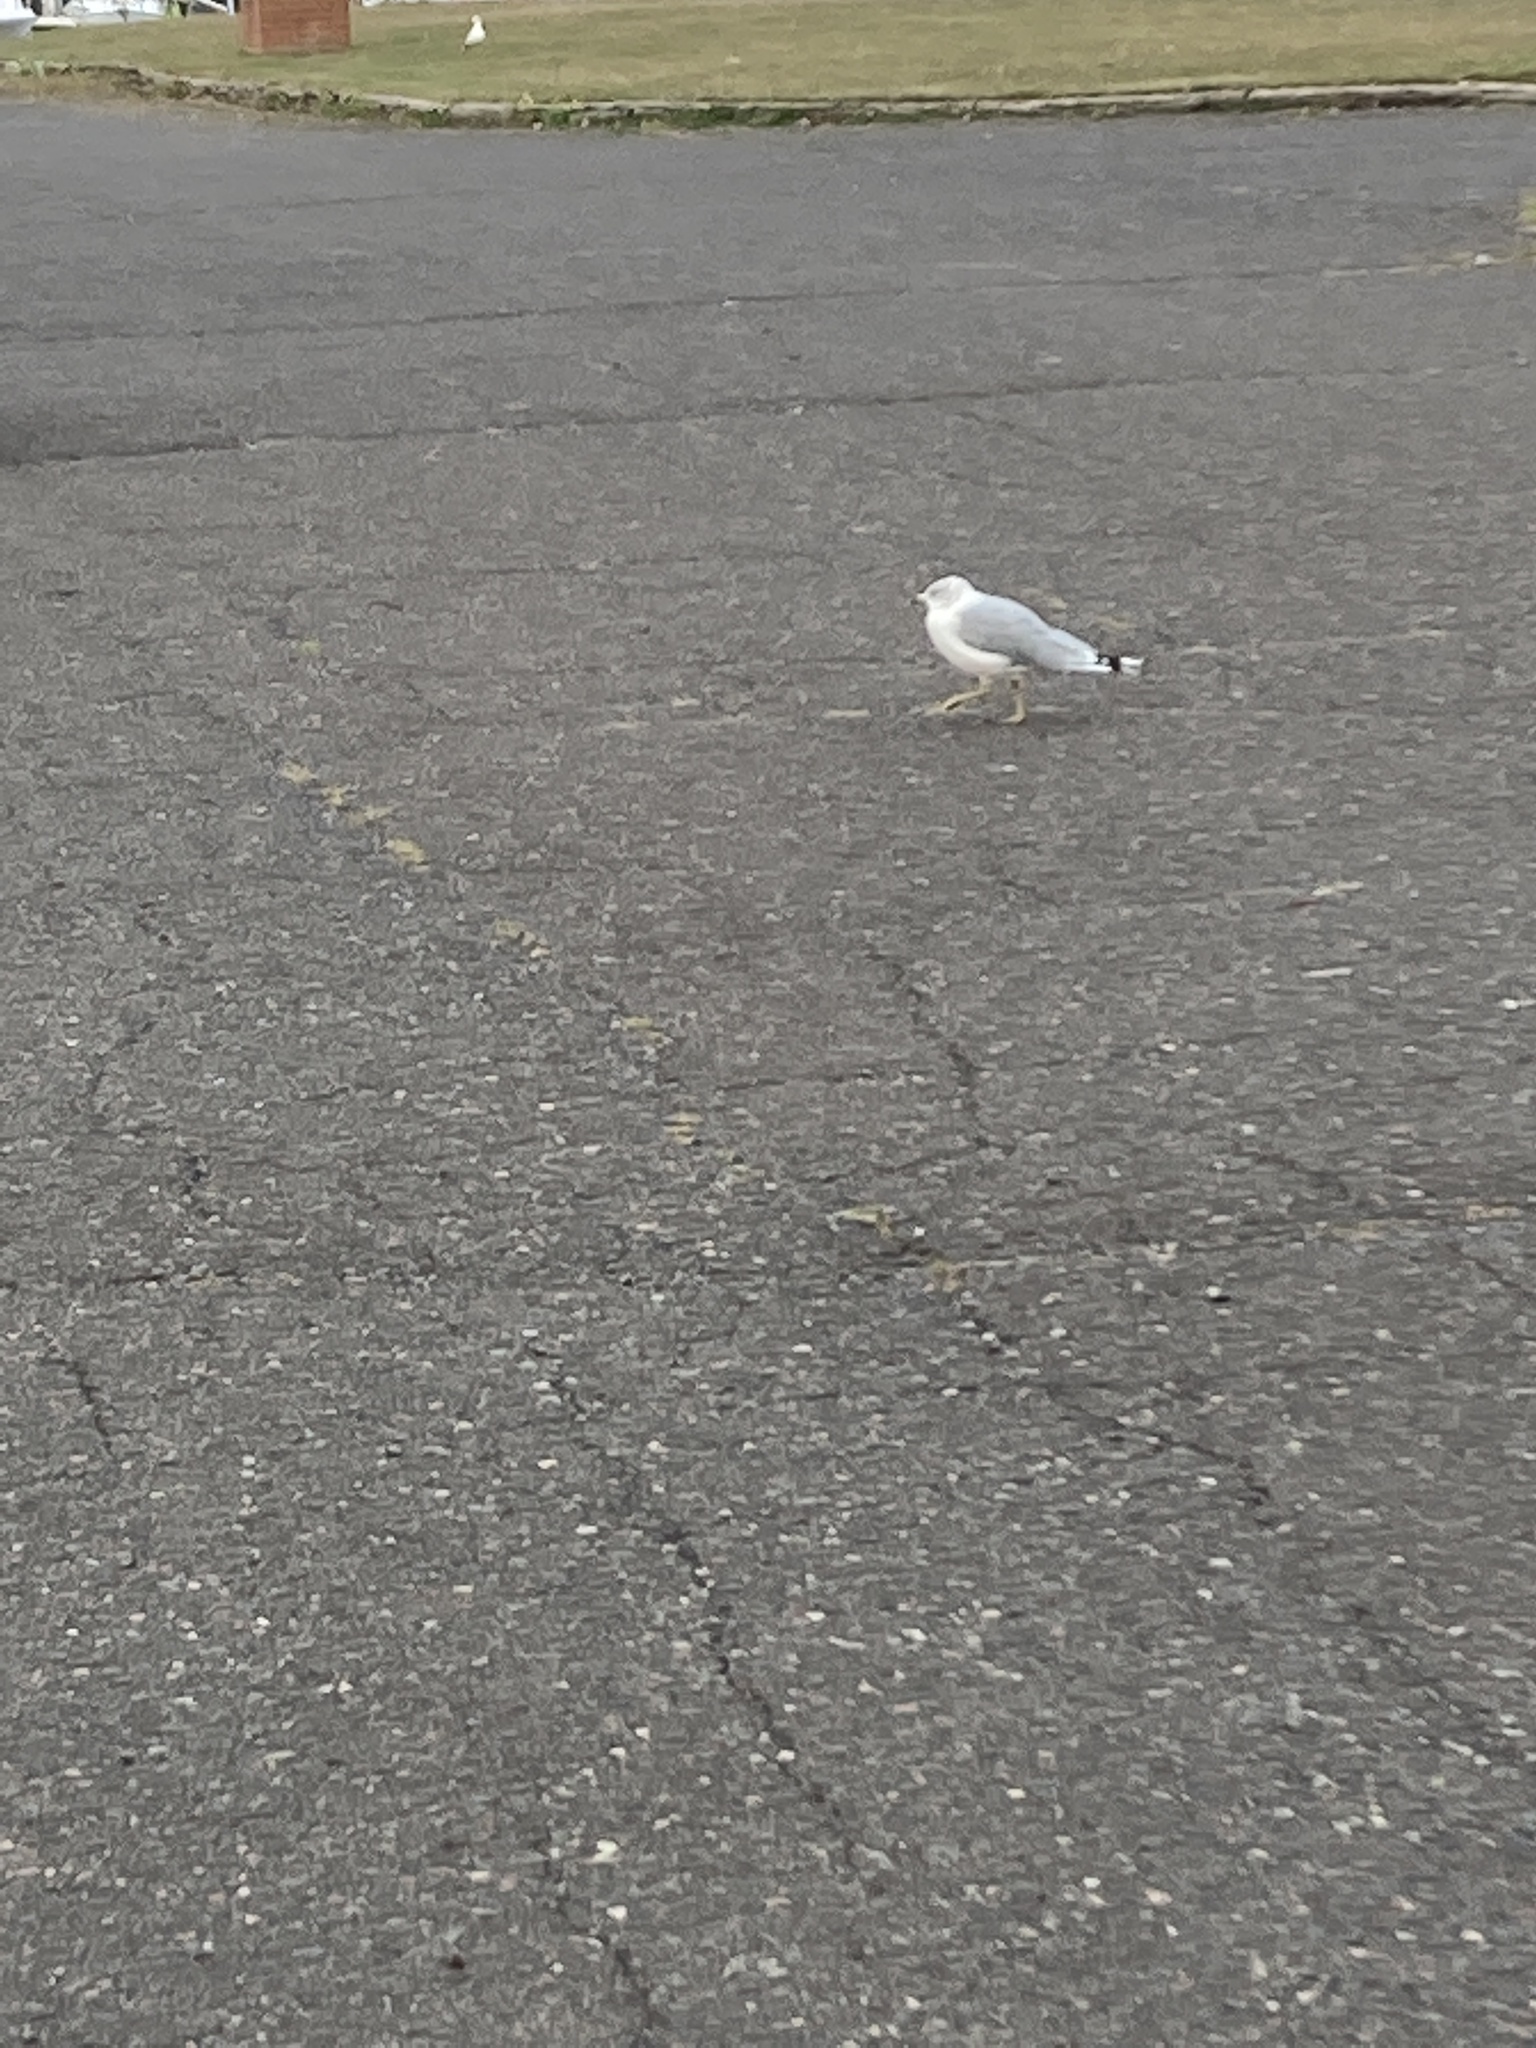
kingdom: Animalia
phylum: Chordata
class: Aves
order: Charadriiformes
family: Laridae
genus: Larus
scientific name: Larus delawarensis
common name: Ring-billed gull
